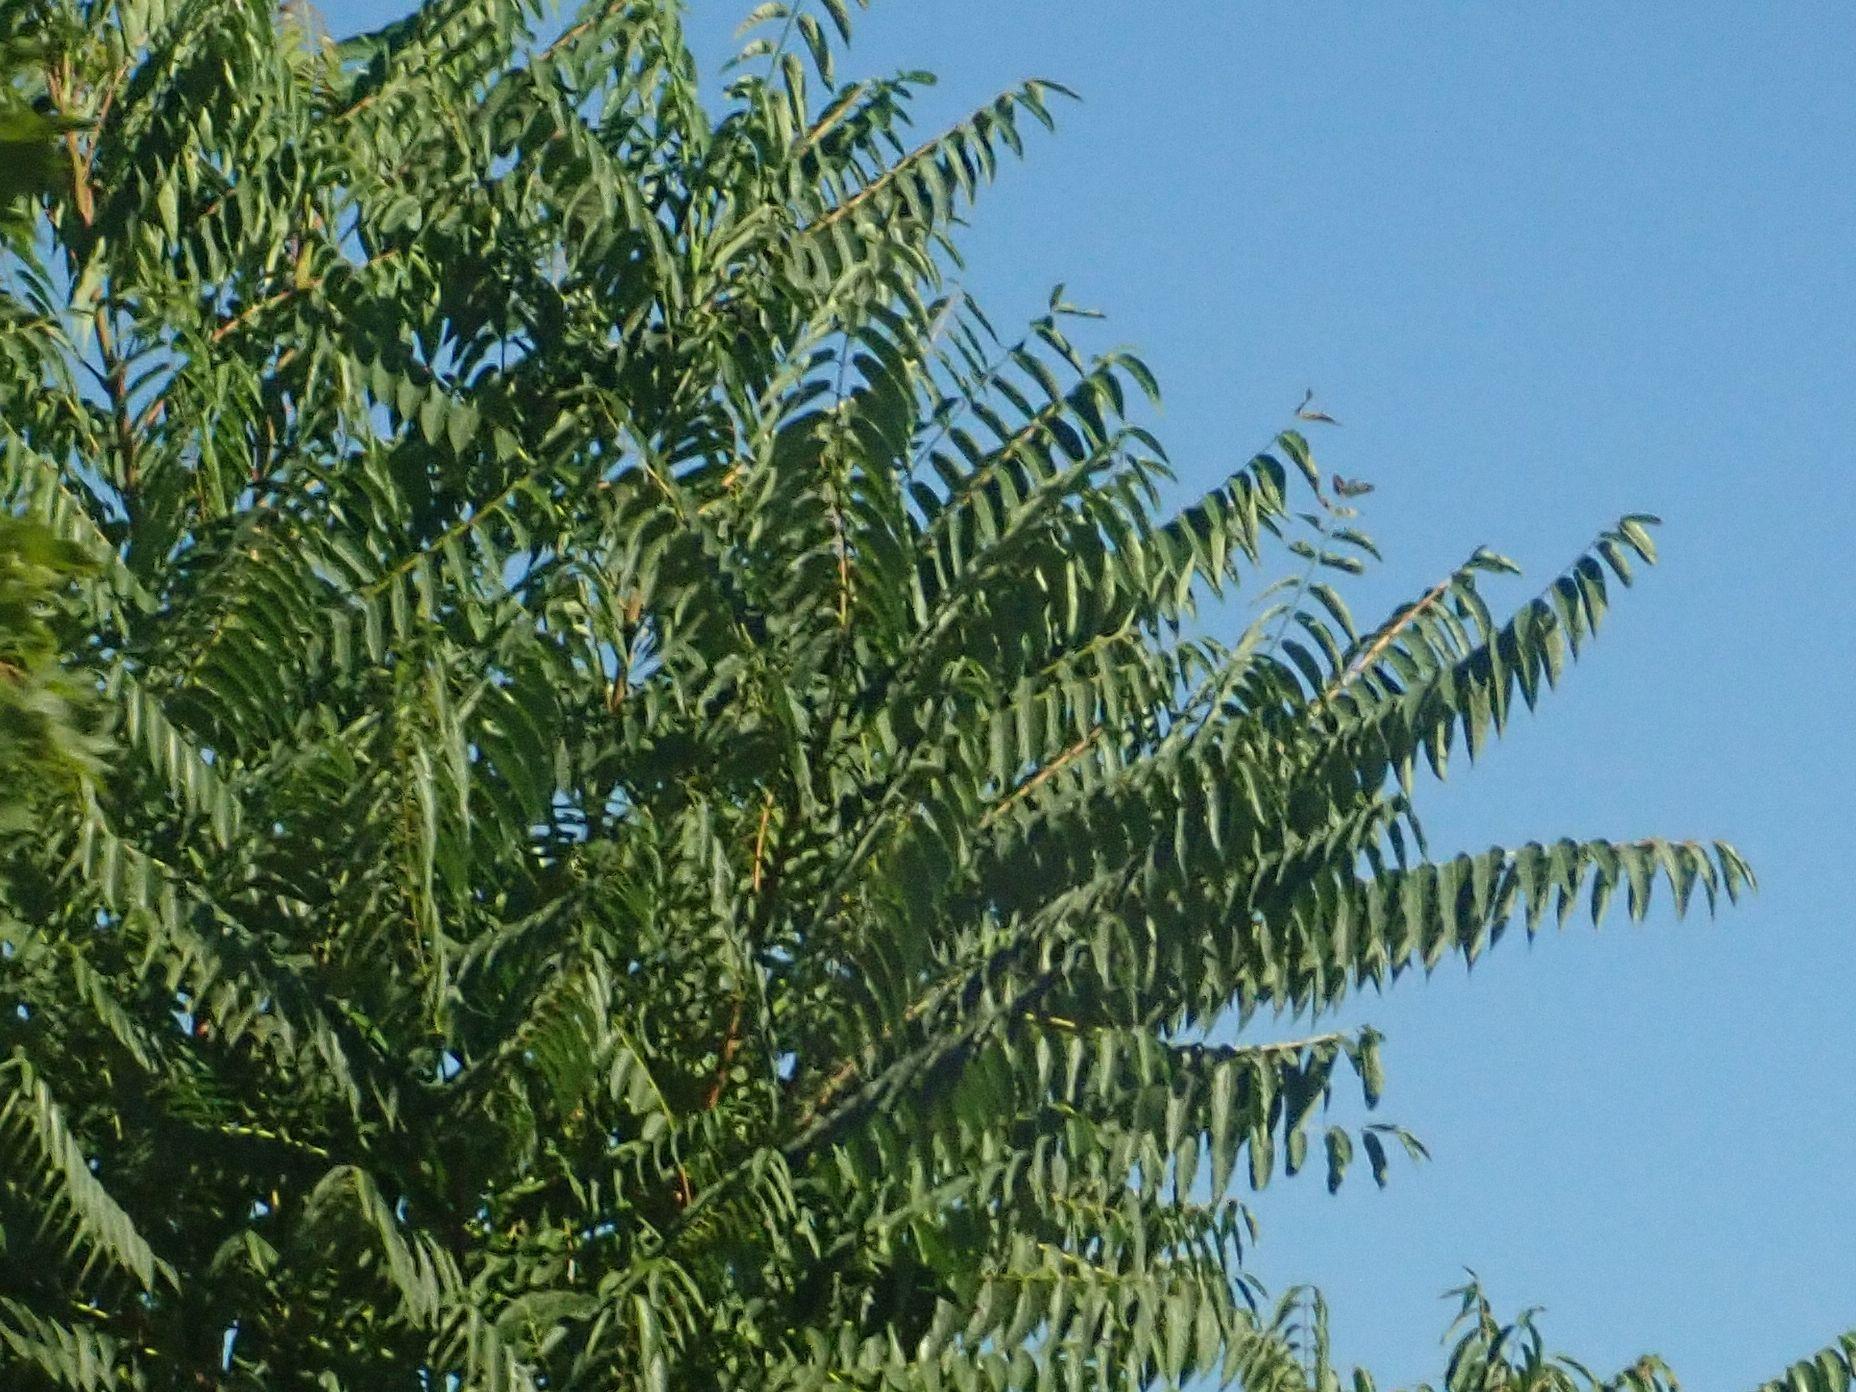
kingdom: Plantae
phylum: Tracheophyta
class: Magnoliopsida
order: Sapindales
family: Simaroubaceae
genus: Ailanthus
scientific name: Ailanthus altissima
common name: Tree-of-heaven
